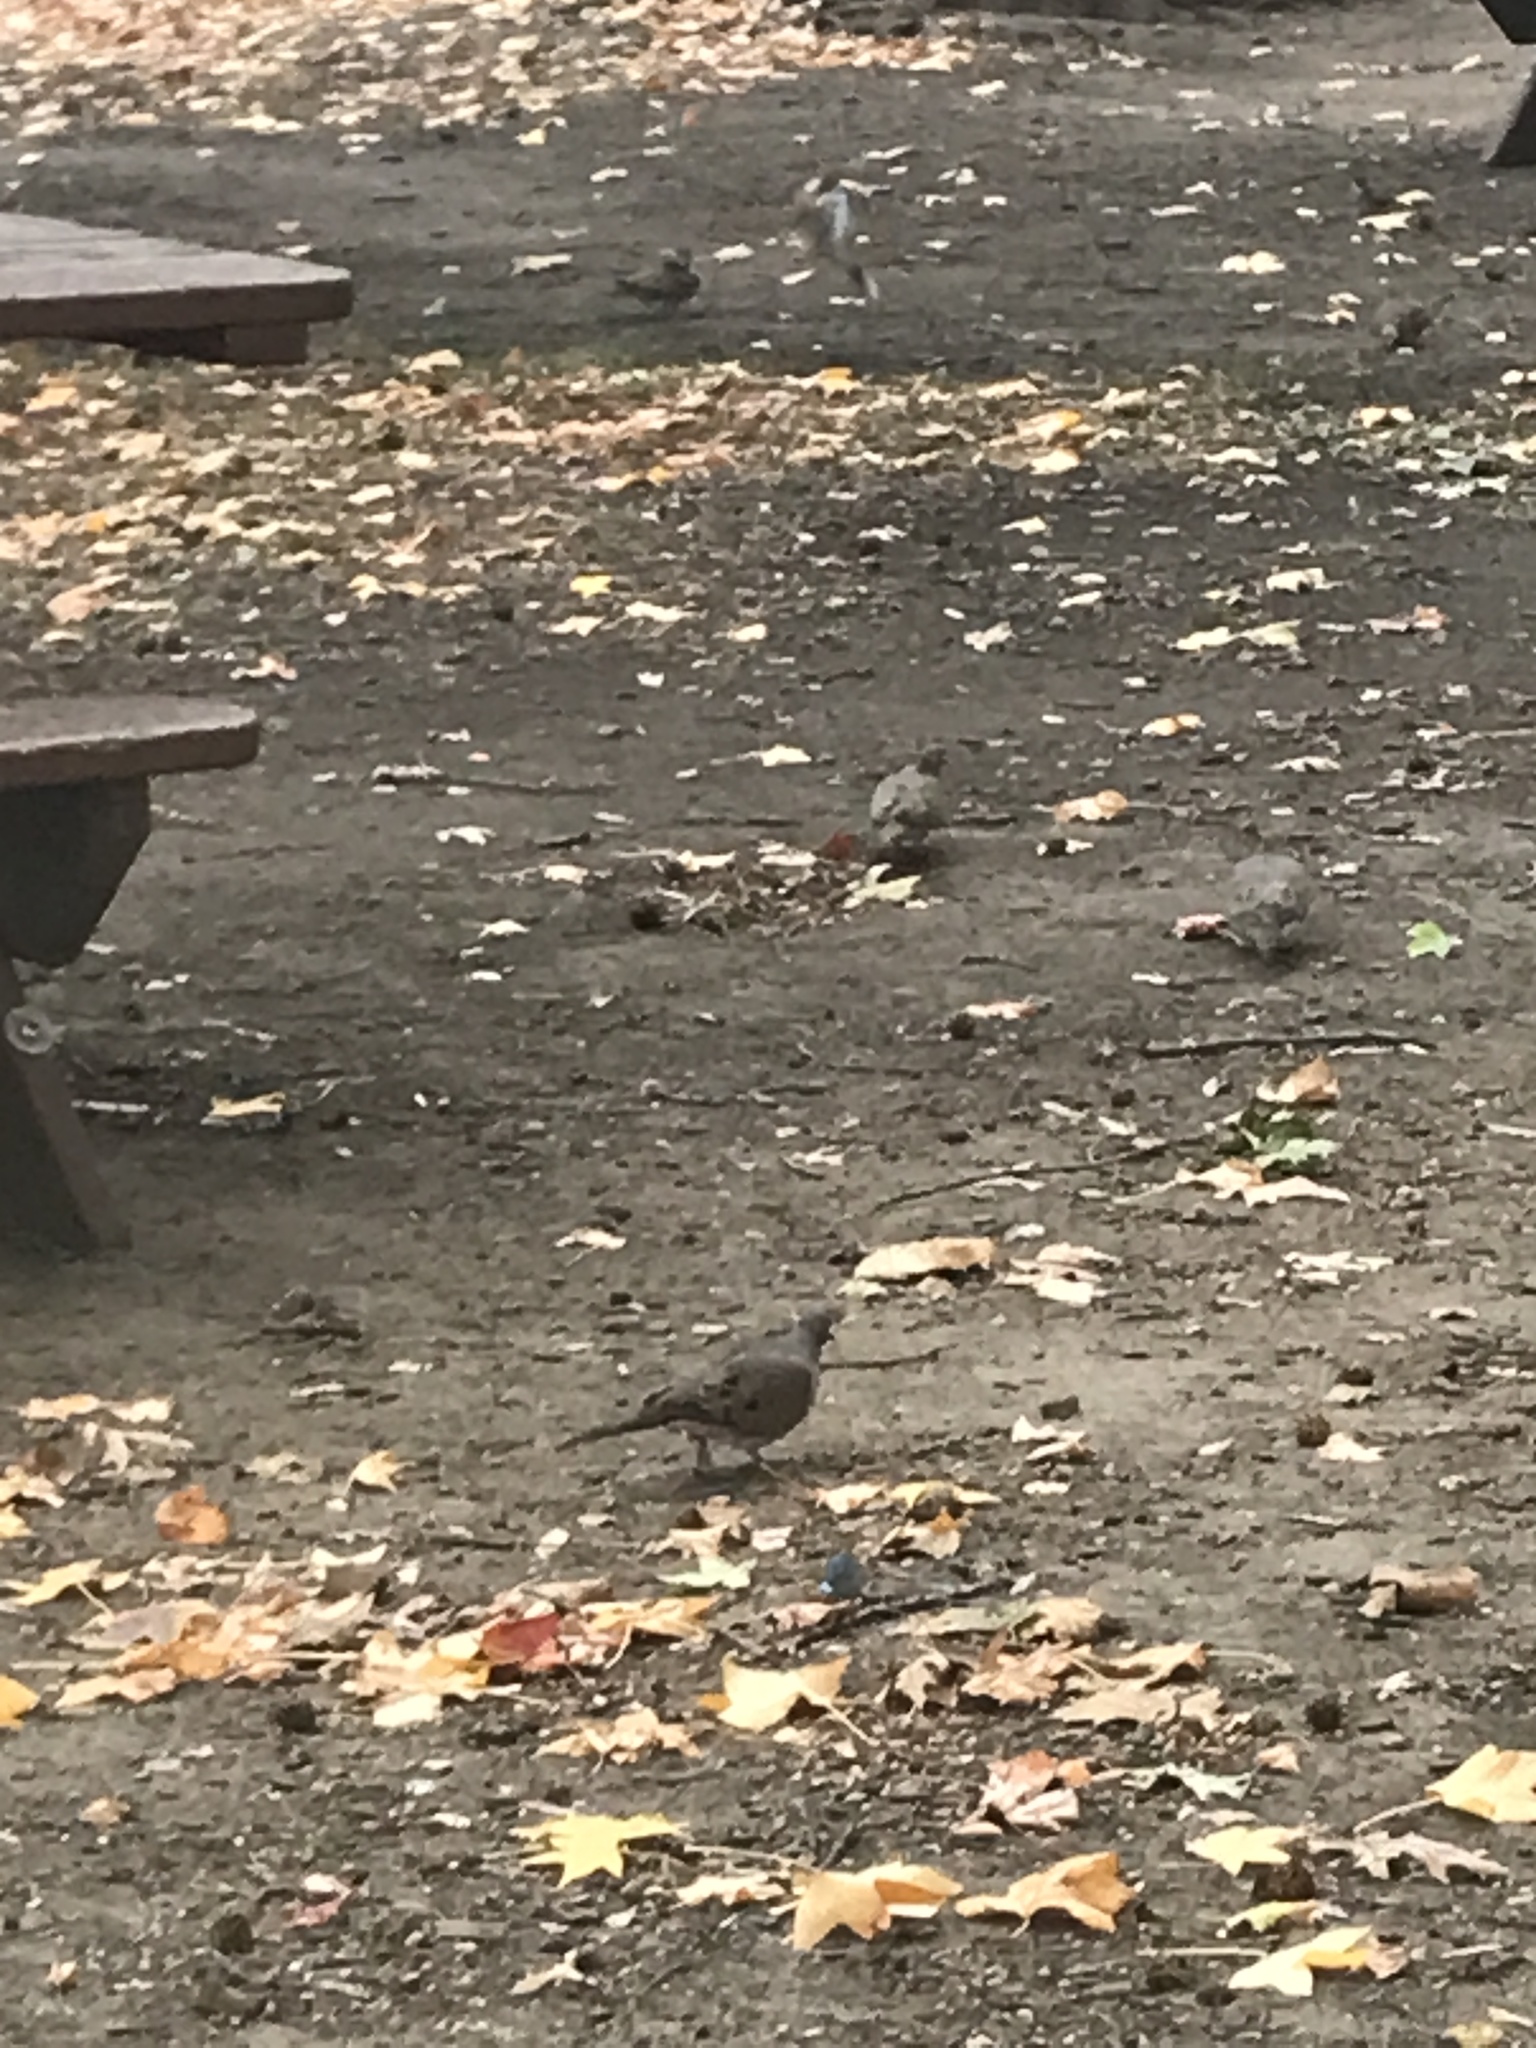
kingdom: Animalia
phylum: Chordata
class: Aves
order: Columbiformes
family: Columbidae
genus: Zenaida
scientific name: Zenaida macroura
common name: Mourning dove
